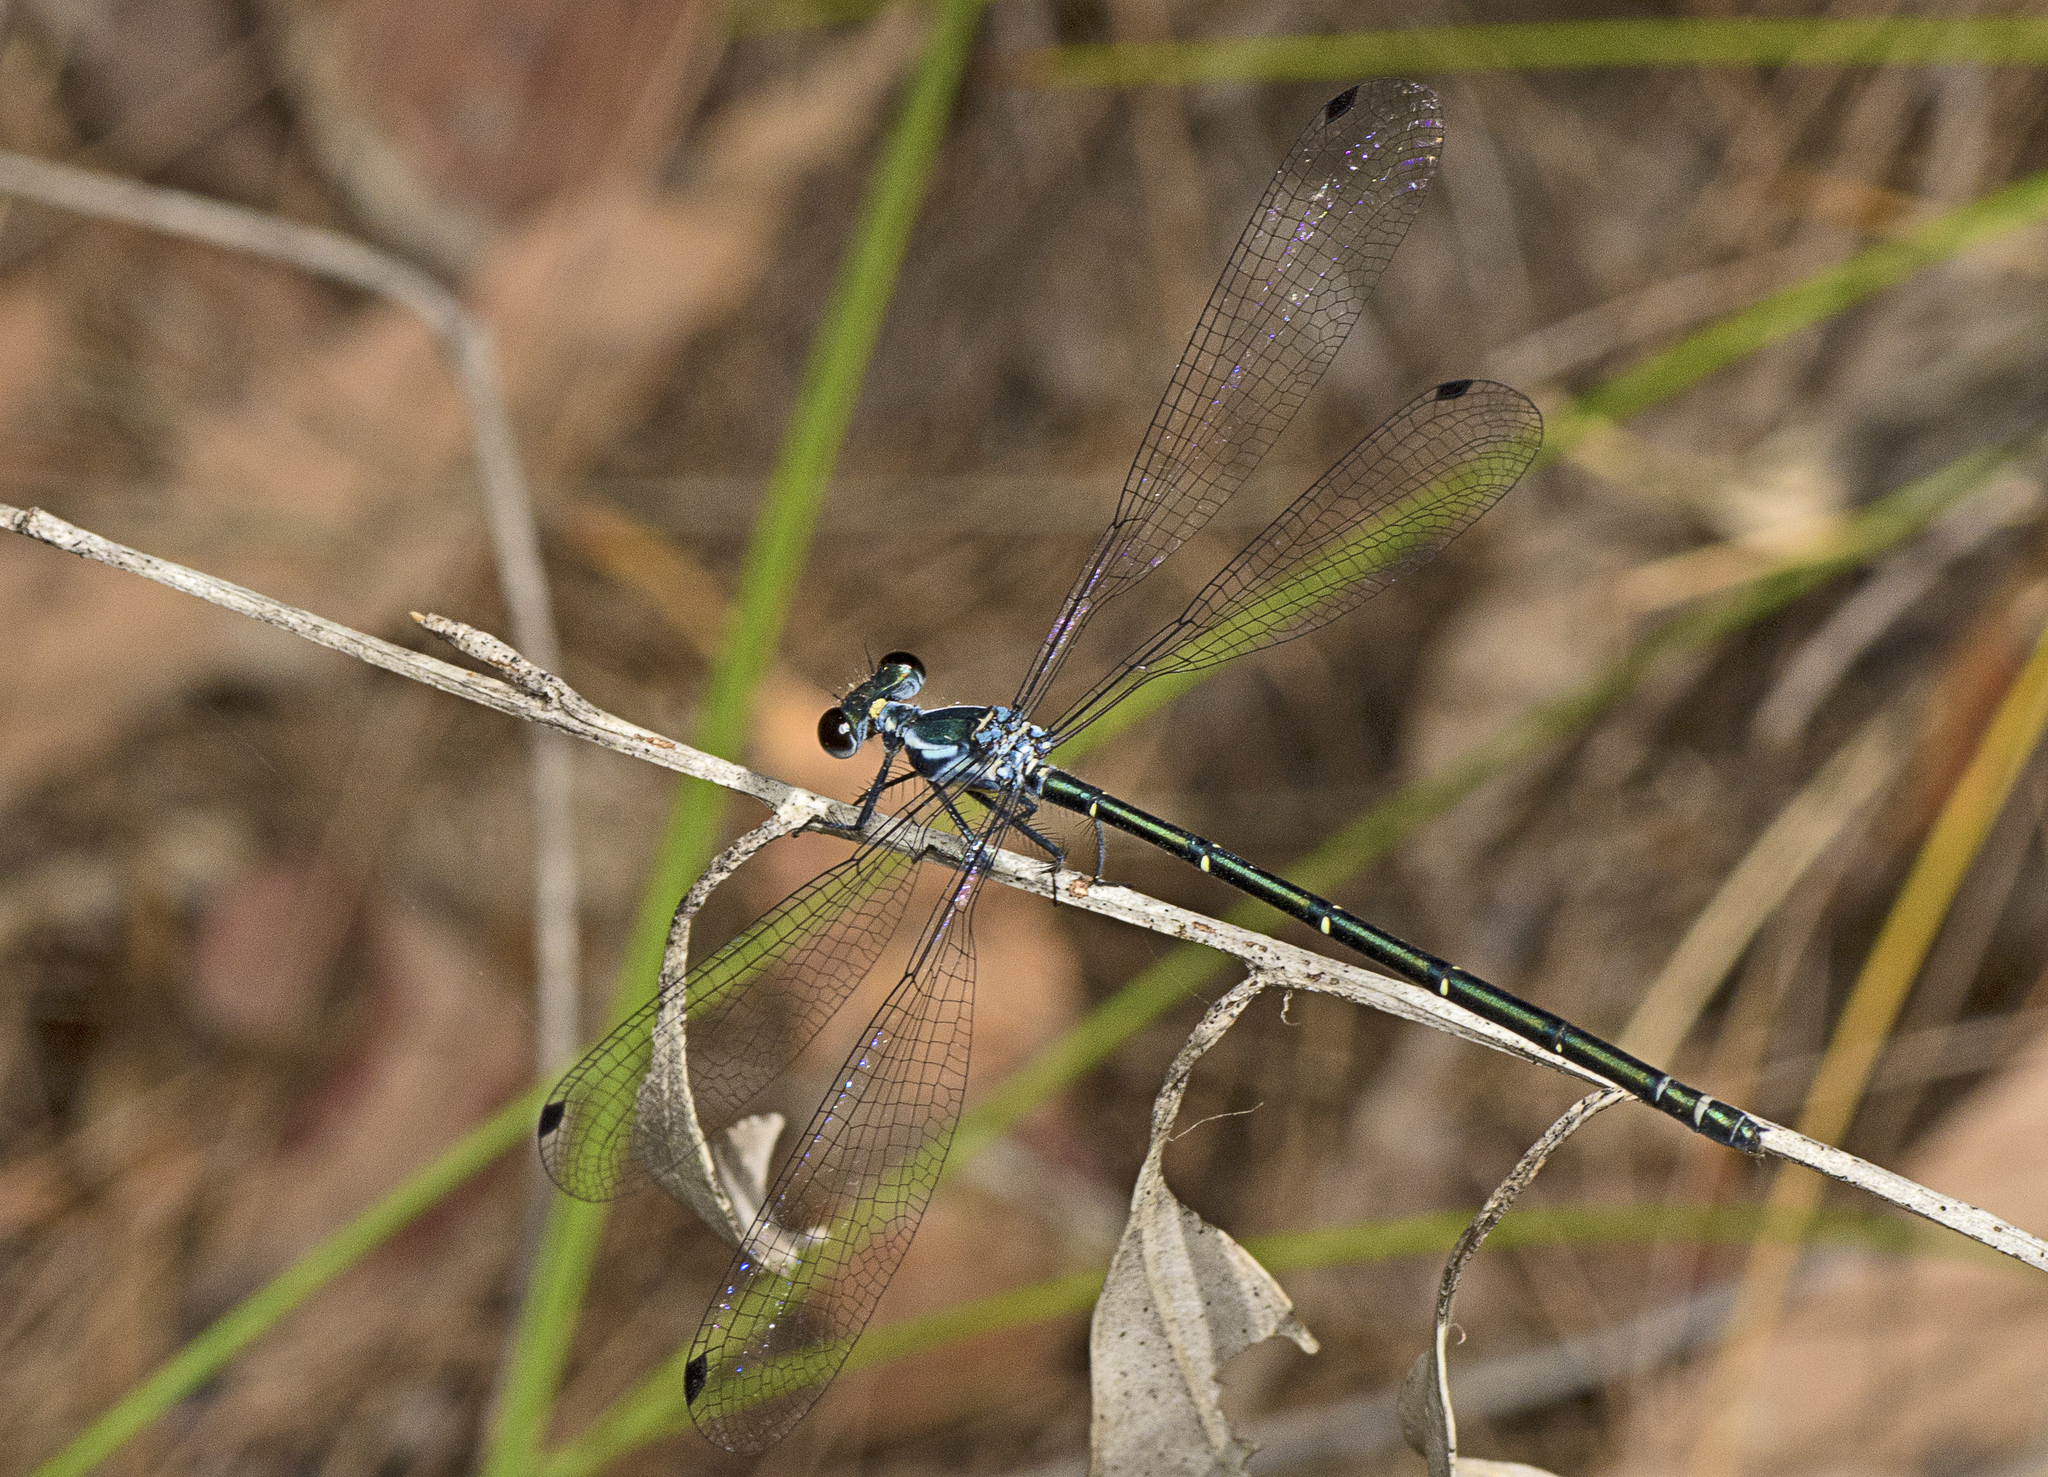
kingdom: Animalia
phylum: Arthropoda
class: Insecta
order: Odonata
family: Argiolestidae
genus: Austroargiolestes
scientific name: Austroargiolestes icteromelas
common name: Common flatwing
